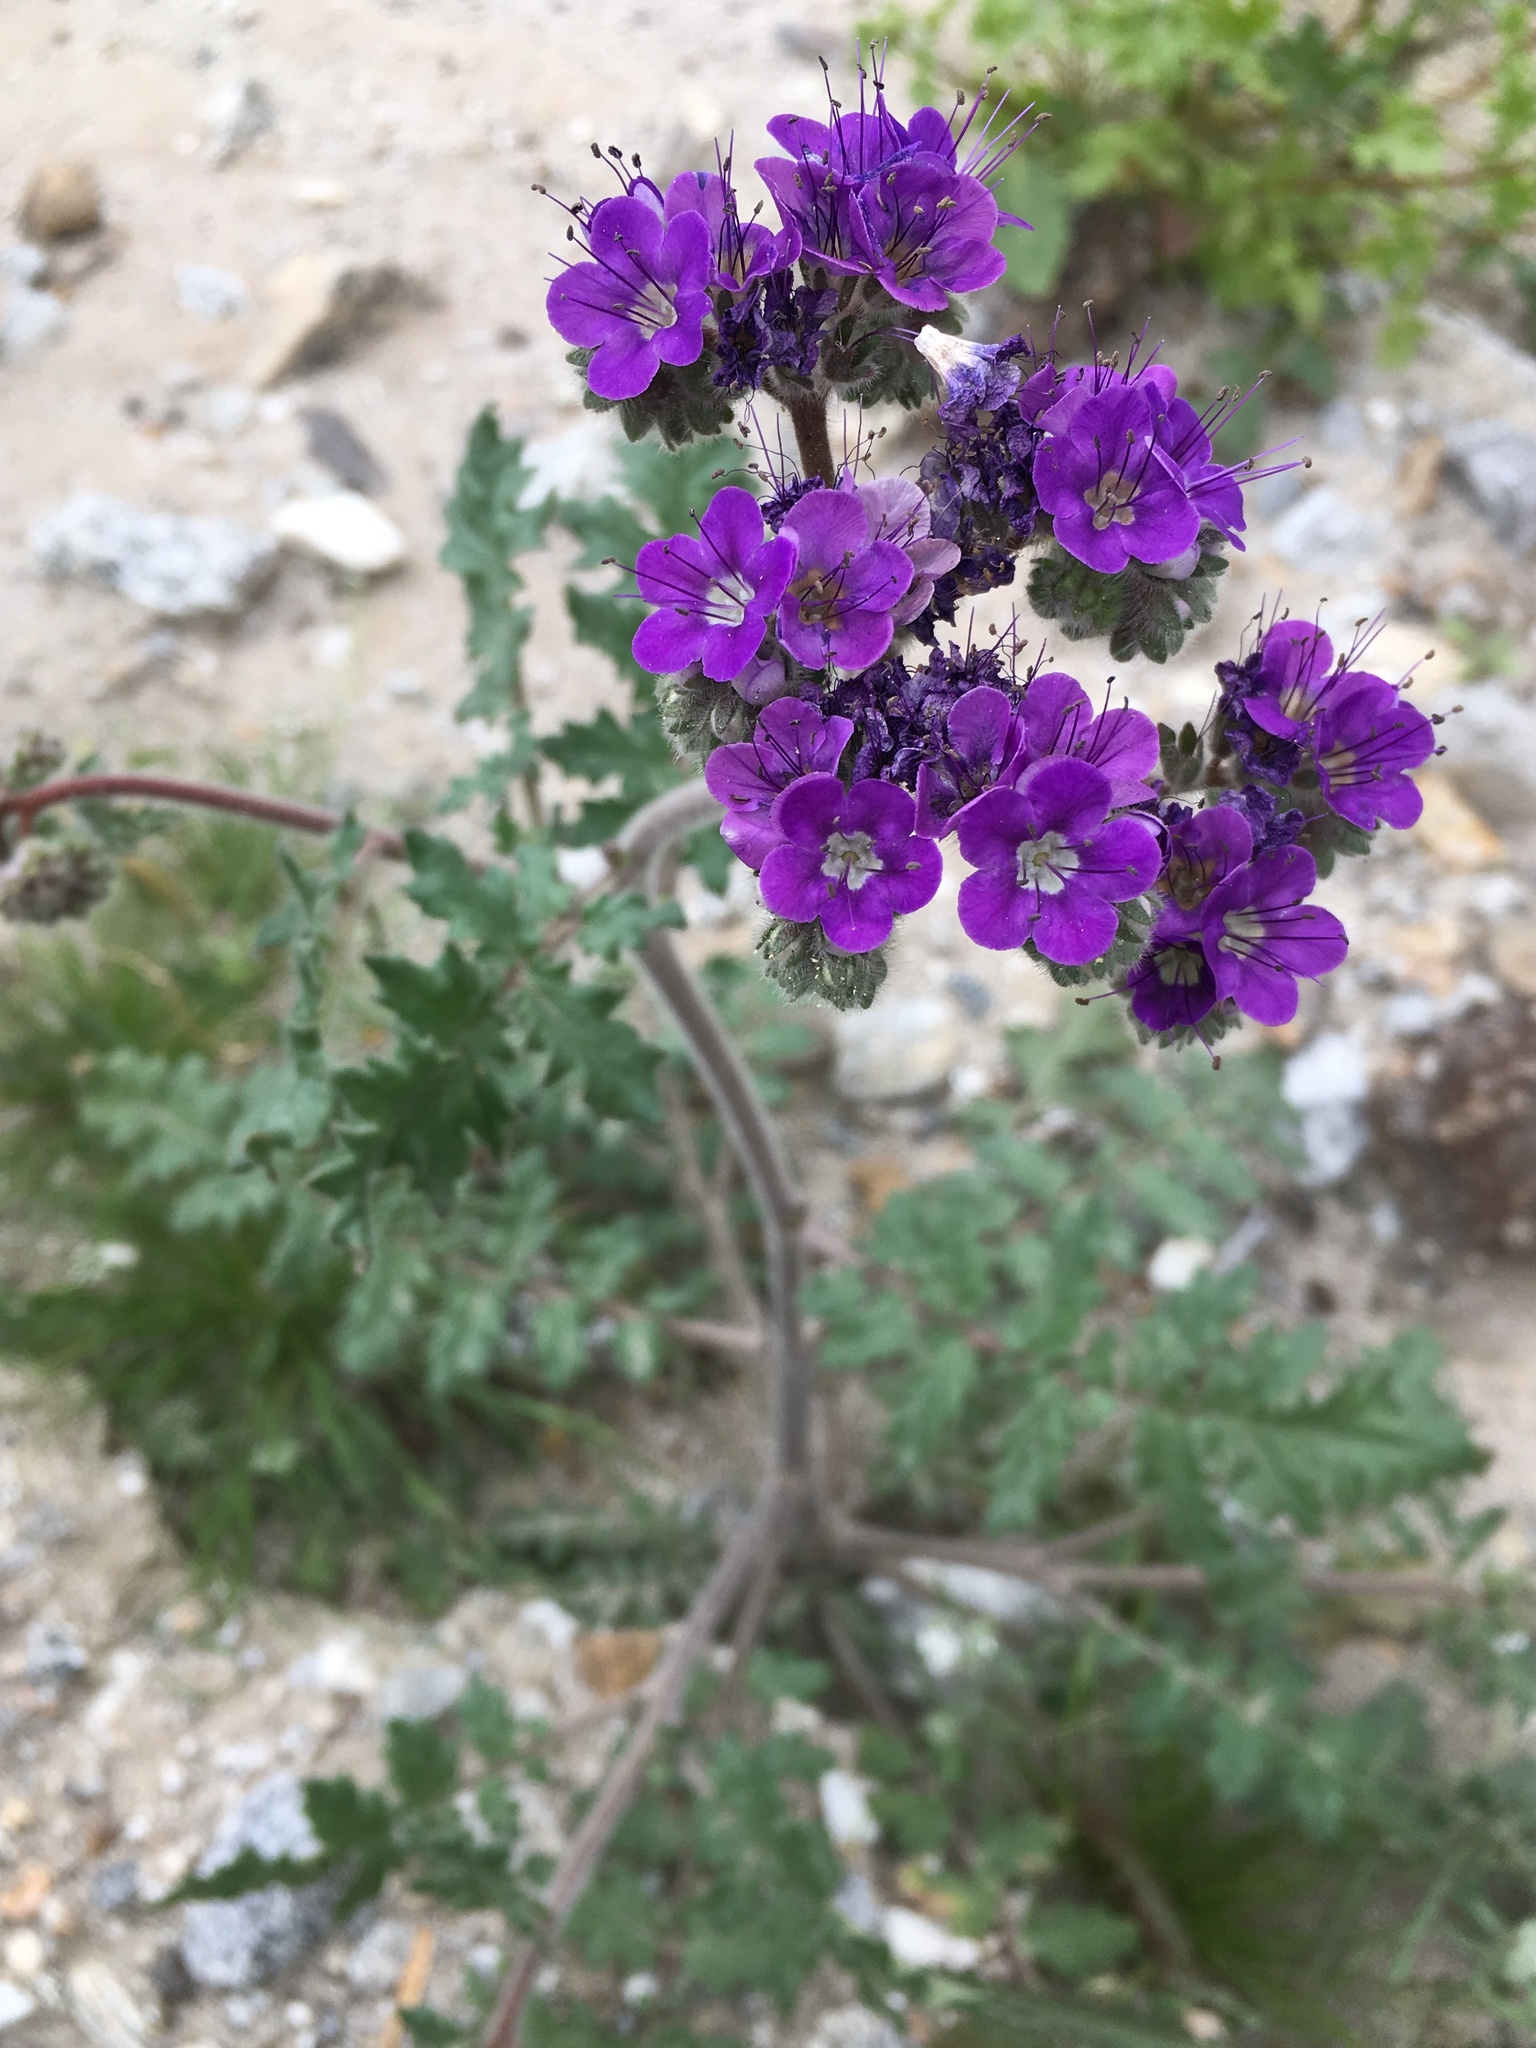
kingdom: Plantae
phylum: Tracheophyta
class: Magnoliopsida
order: Boraginales
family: Hydrophyllaceae
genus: Phacelia
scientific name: Phacelia crenulata
